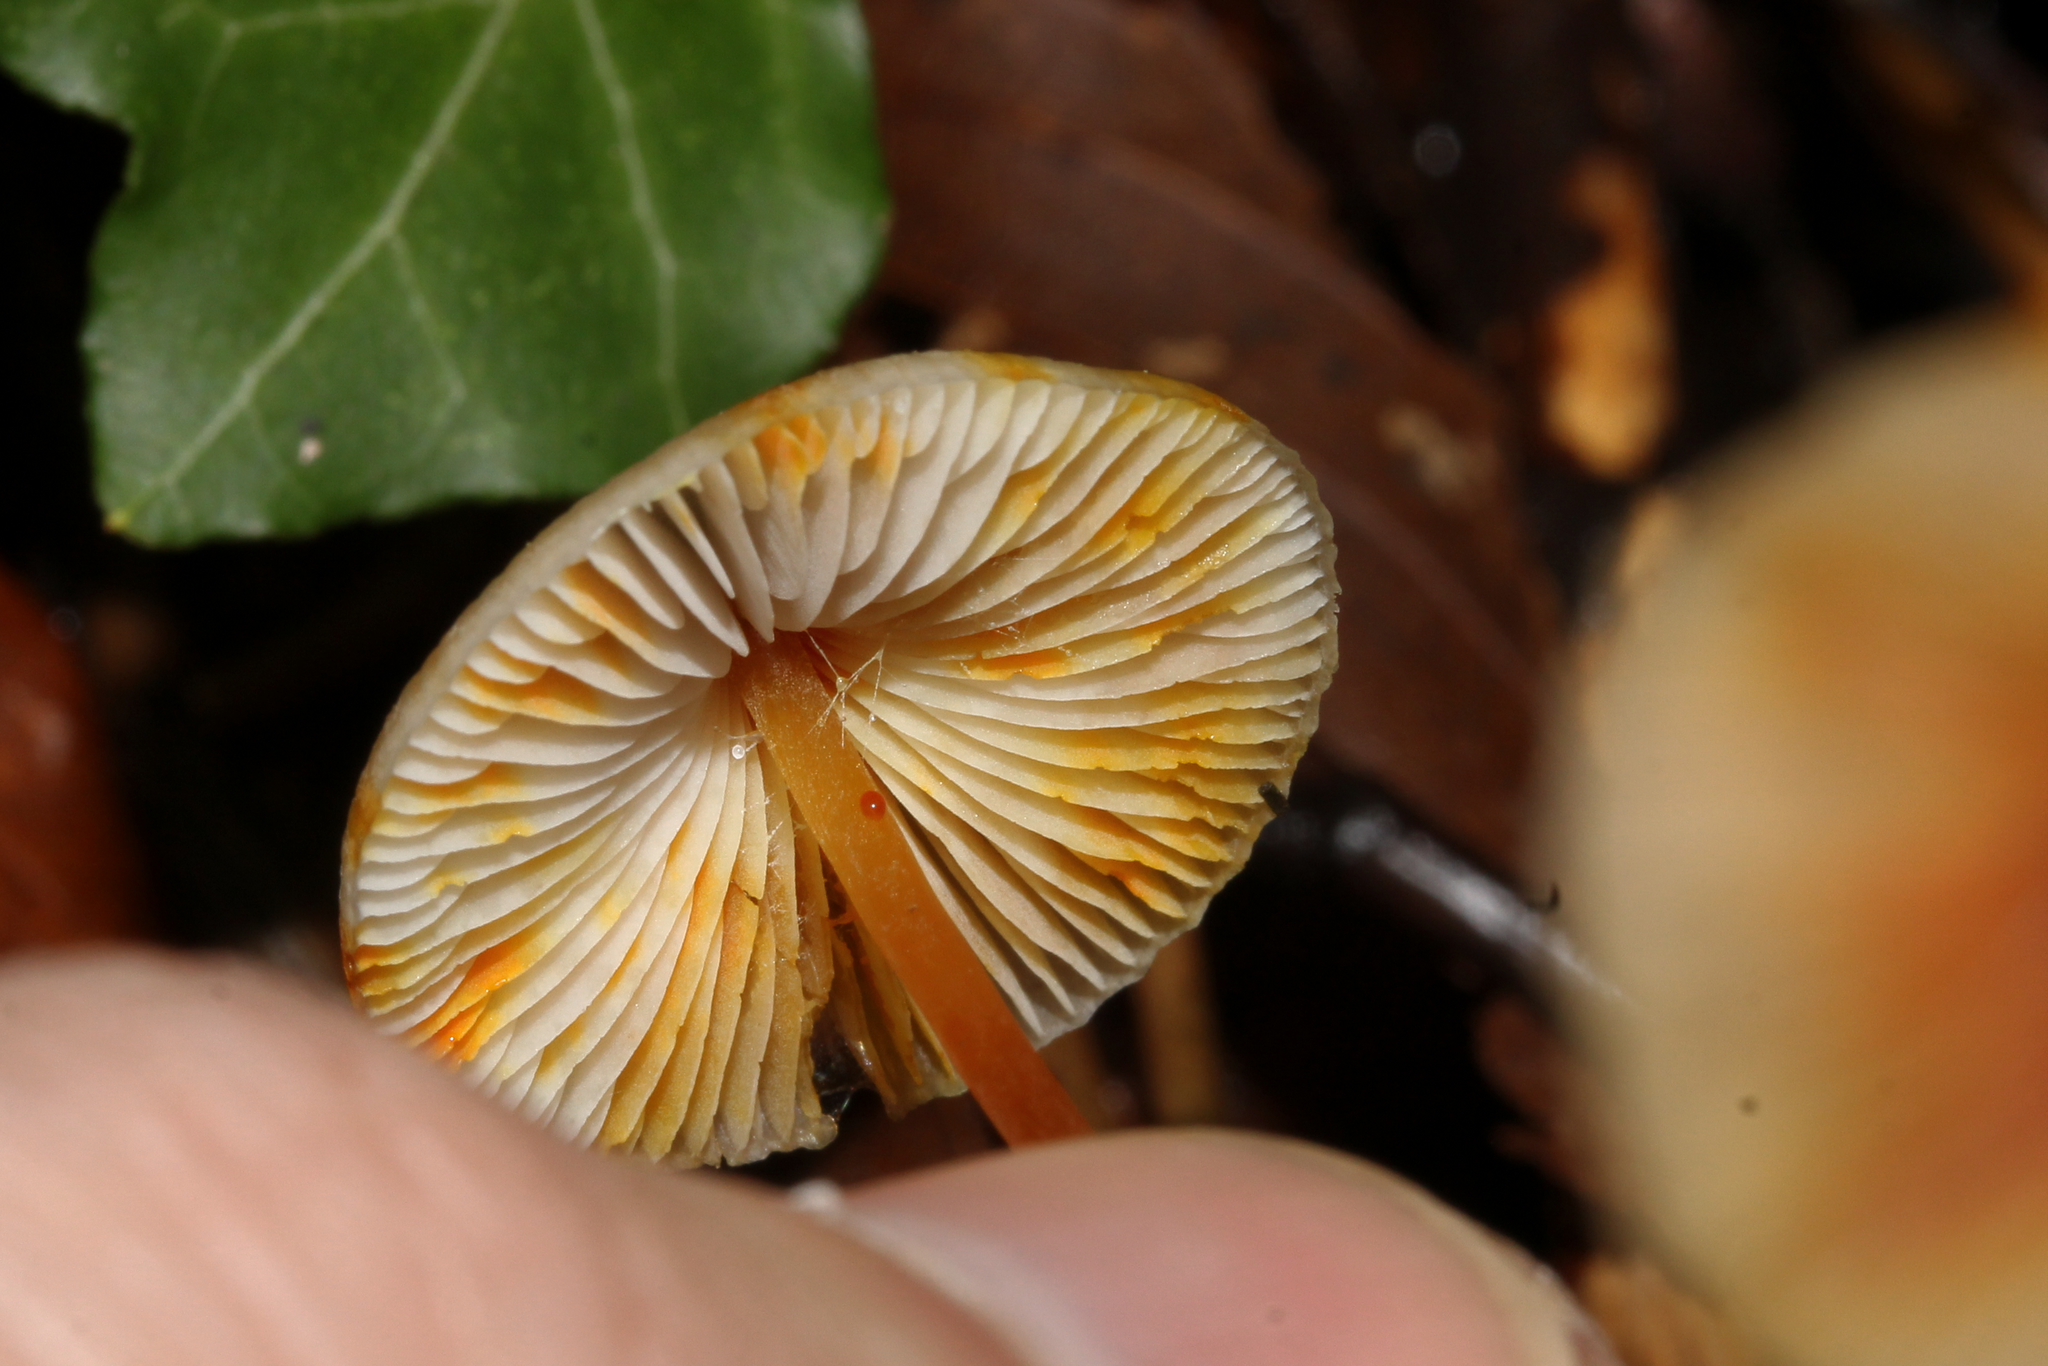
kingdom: Fungi
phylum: Basidiomycota
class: Agaricomycetes
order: Agaricales
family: Mycenaceae
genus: Mycena
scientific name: Mycena crocata
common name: Saffrondrop bonnet
